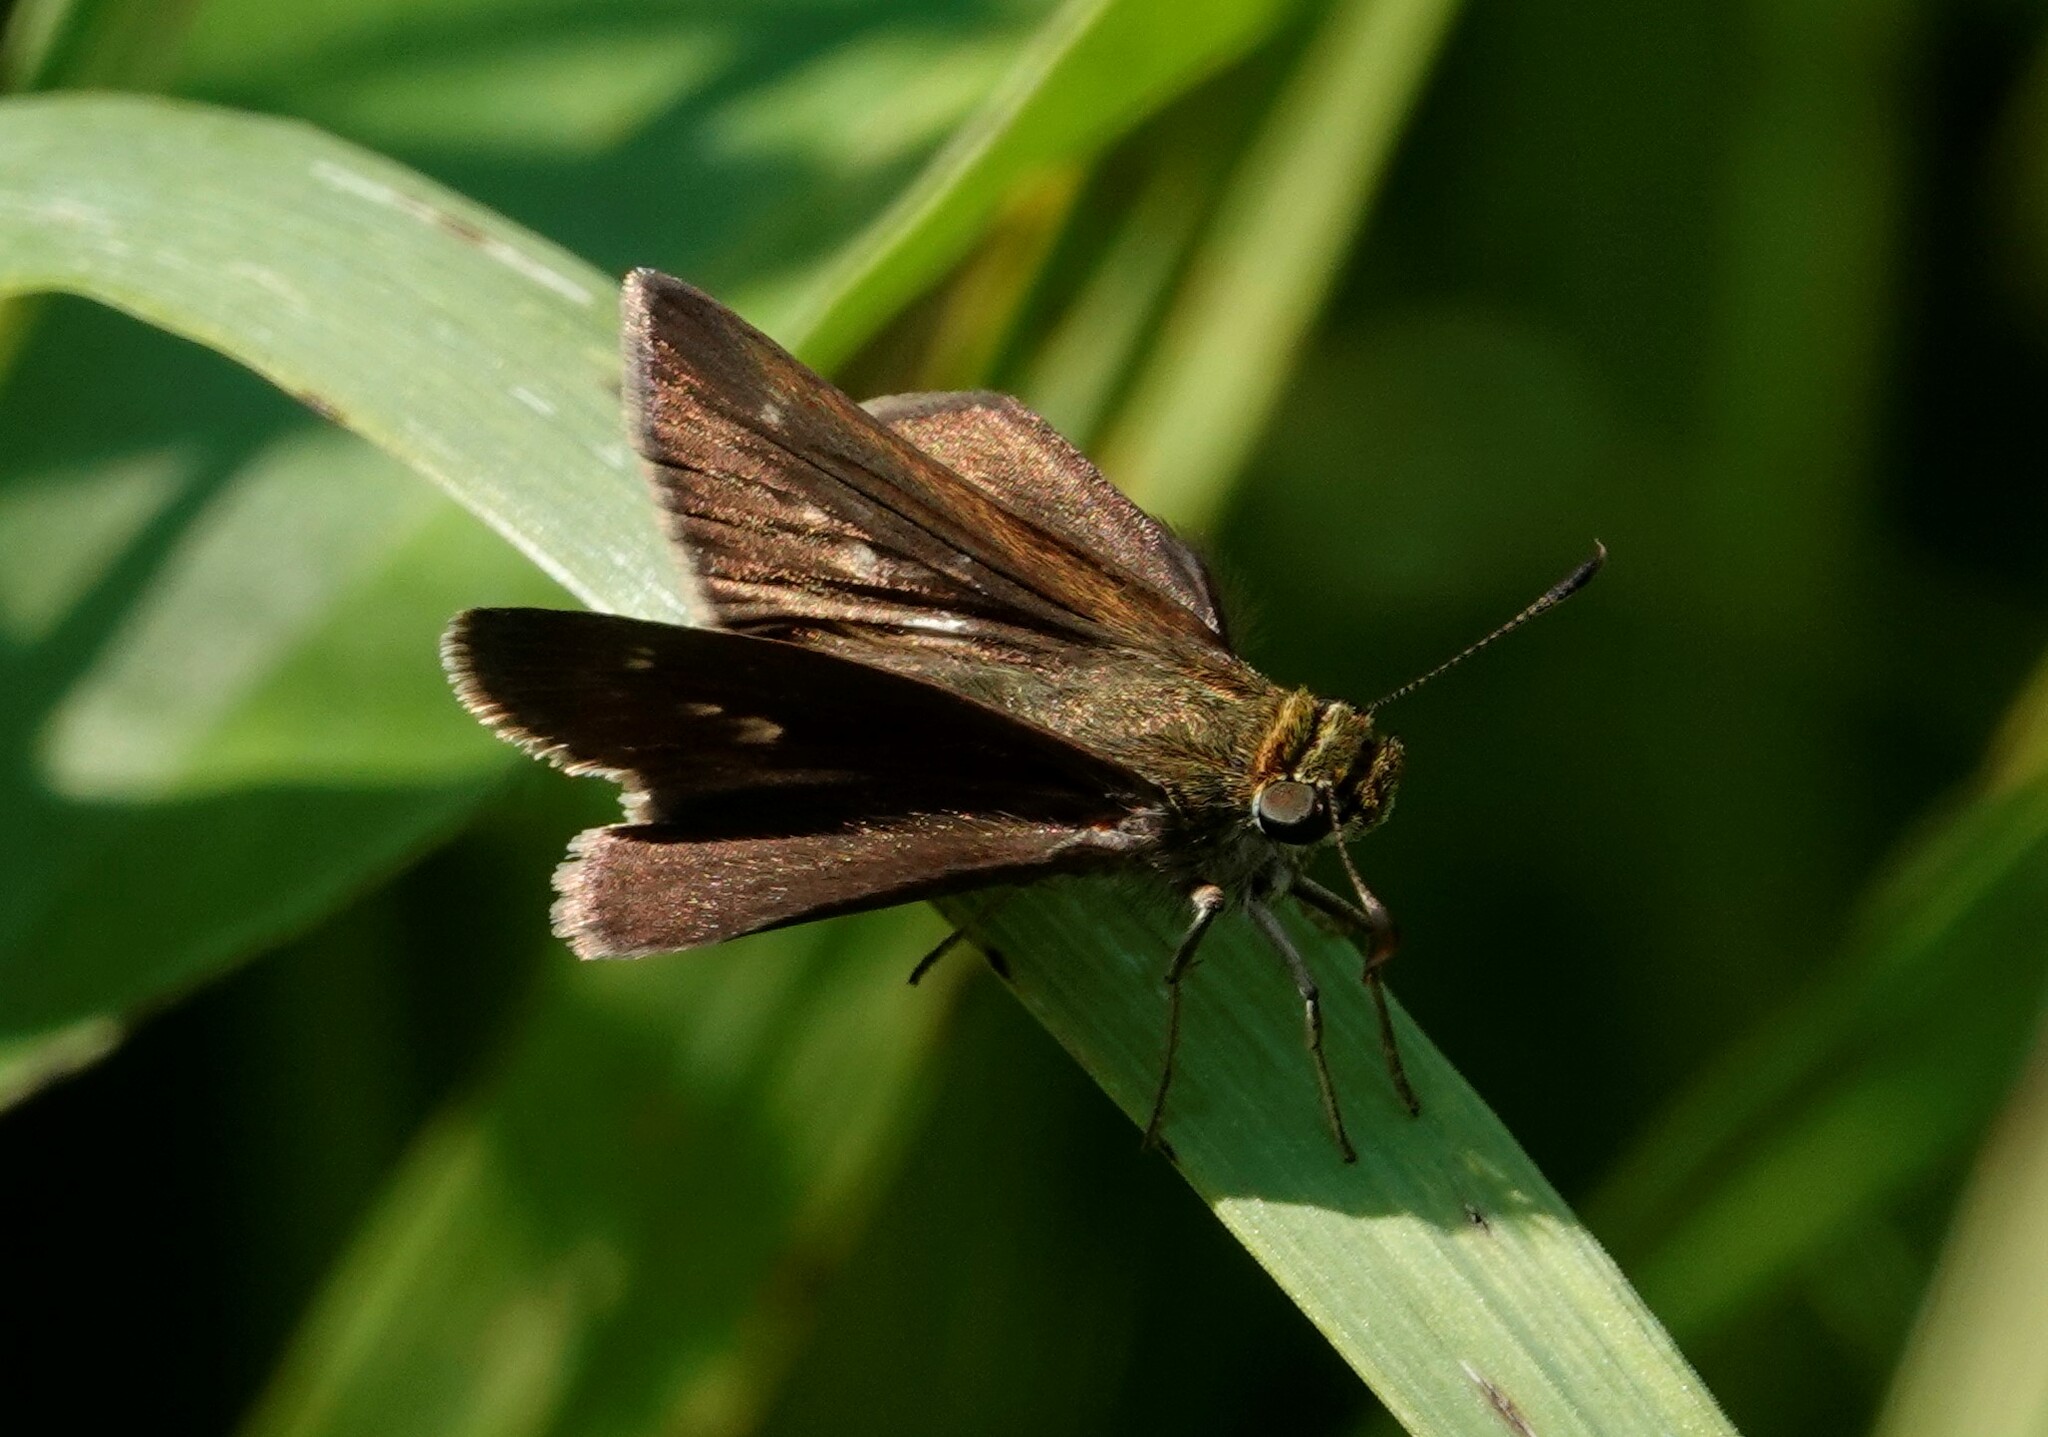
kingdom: Animalia
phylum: Arthropoda
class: Insecta
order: Lepidoptera
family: Hesperiidae
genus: Euphyes
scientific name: Euphyes vestris
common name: Dun skipper
